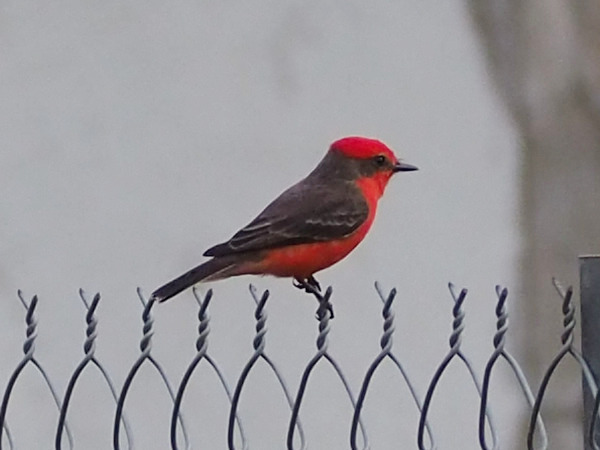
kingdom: Animalia
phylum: Chordata
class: Aves
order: Passeriformes
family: Tyrannidae
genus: Pyrocephalus
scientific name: Pyrocephalus rubinus
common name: Vermilion flycatcher
